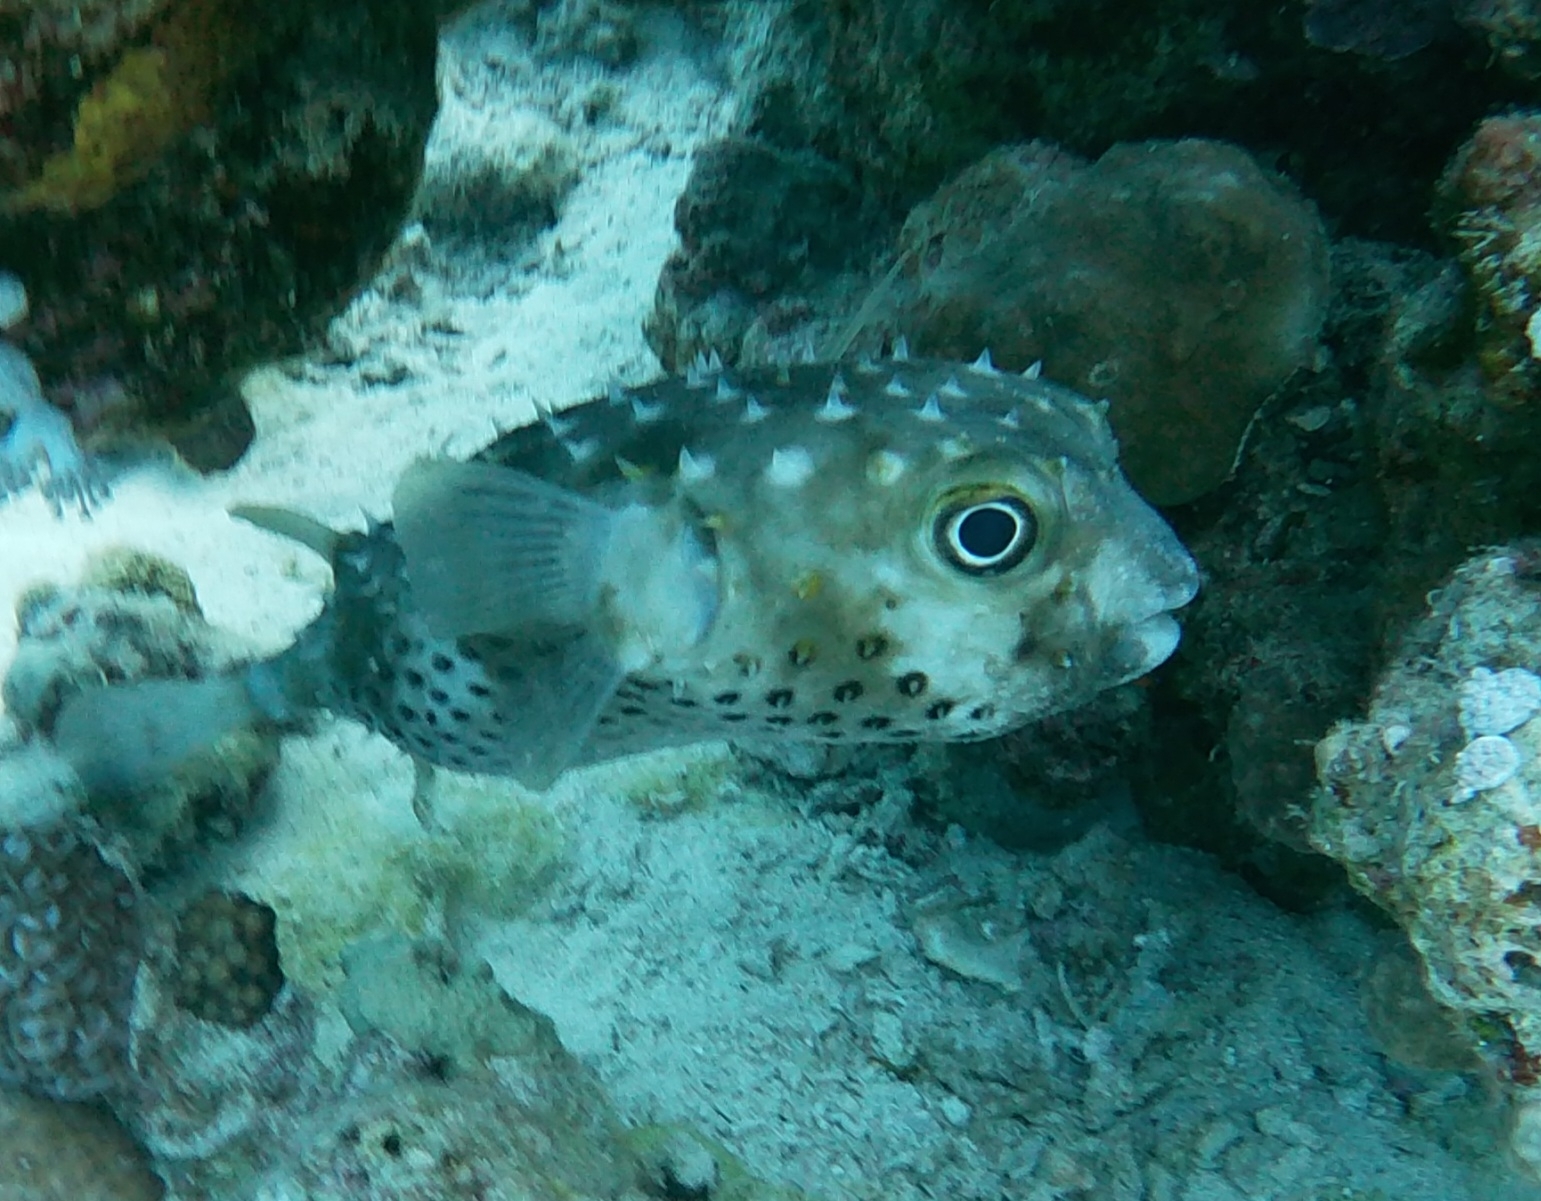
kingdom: Animalia
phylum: Chordata
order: Tetraodontiformes
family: Diodontidae
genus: Cyclichthys
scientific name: Cyclichthys spilostylus
